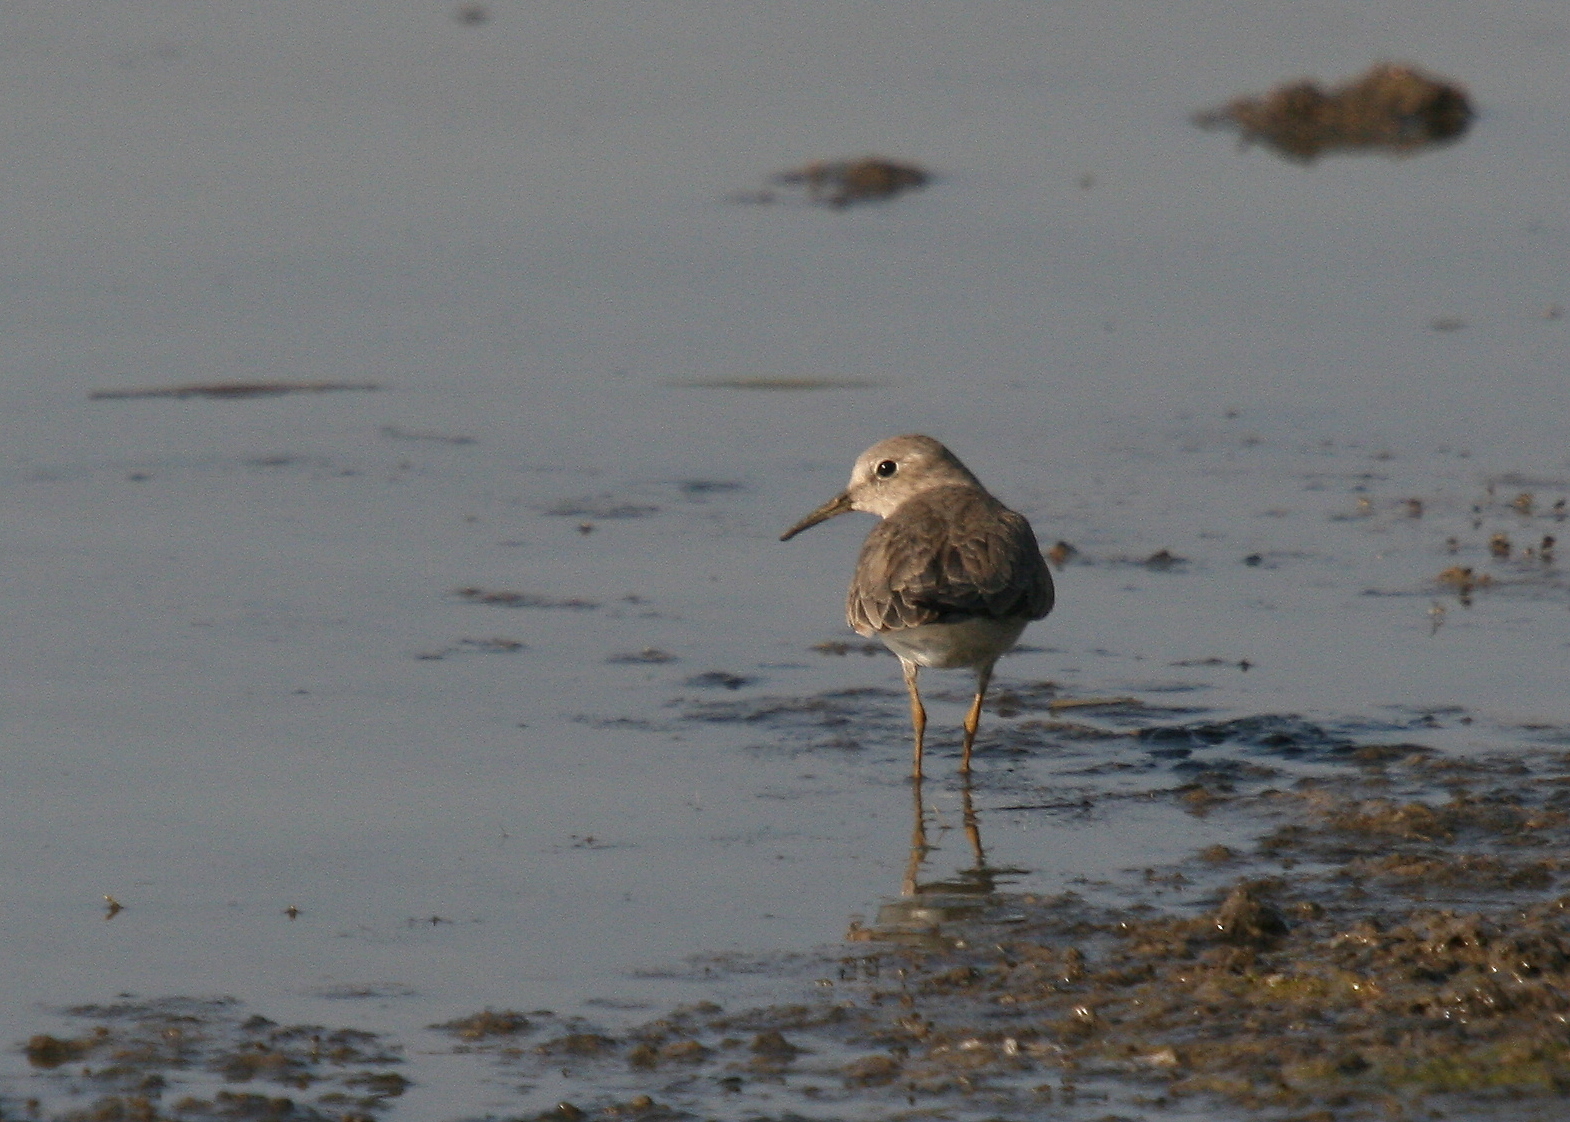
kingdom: Animalia
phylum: Chordata
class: Aves
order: Charadriiformes
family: Scolopacidae
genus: Calidris
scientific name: Calidris temminckii
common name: Temminck's stint
